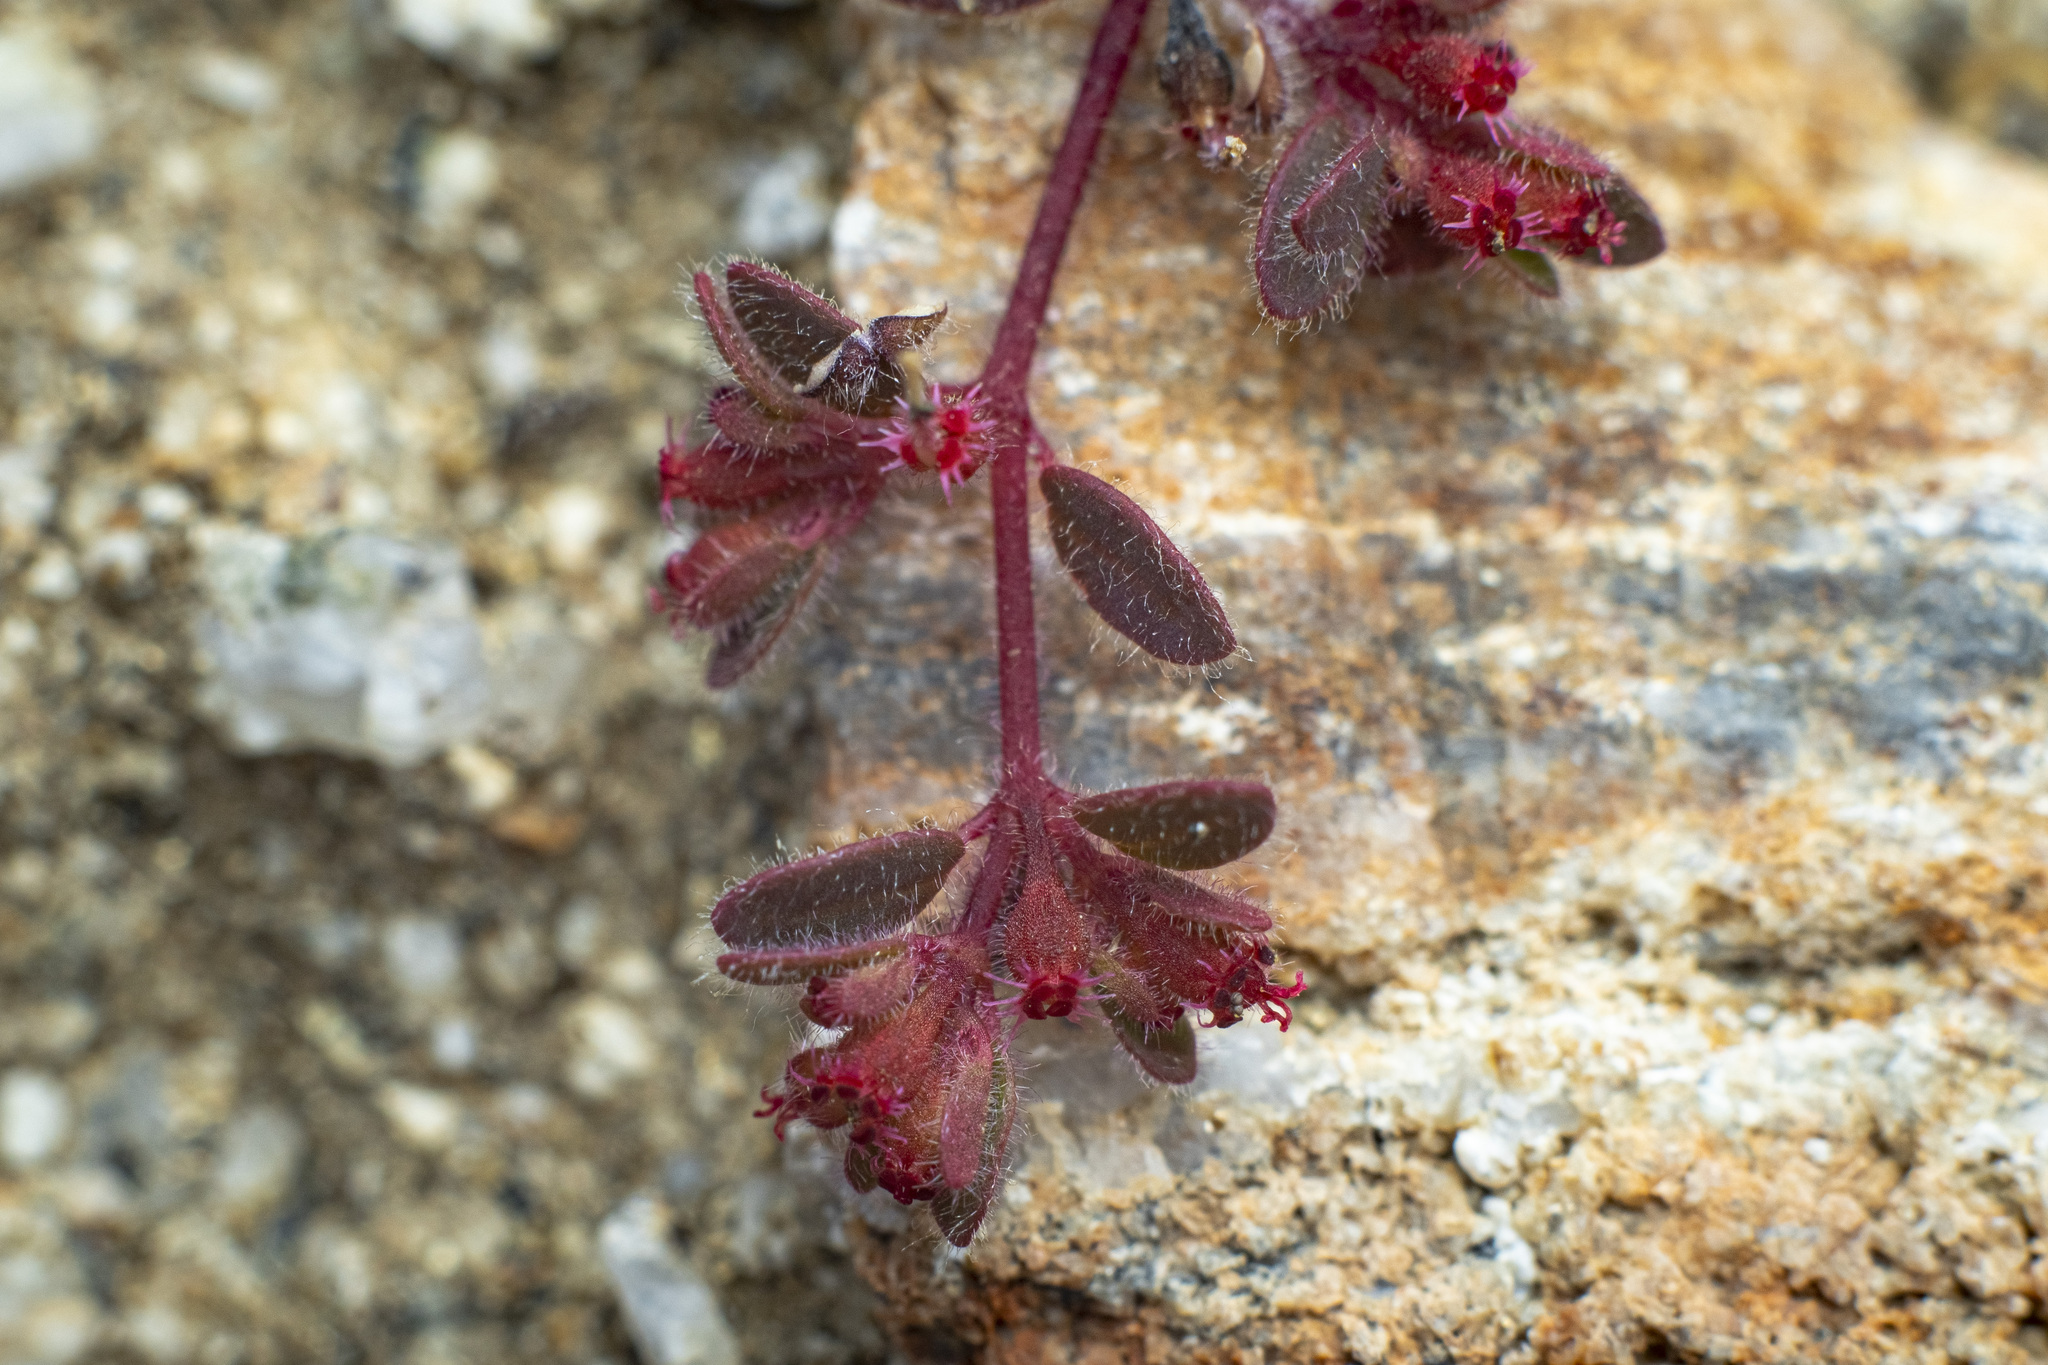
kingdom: Plantae
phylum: Tracheophyta
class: Magnoliopsida
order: Malpighiales
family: Euphorbiaceae
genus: Euphorbia
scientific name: Euphorbia setiloba
